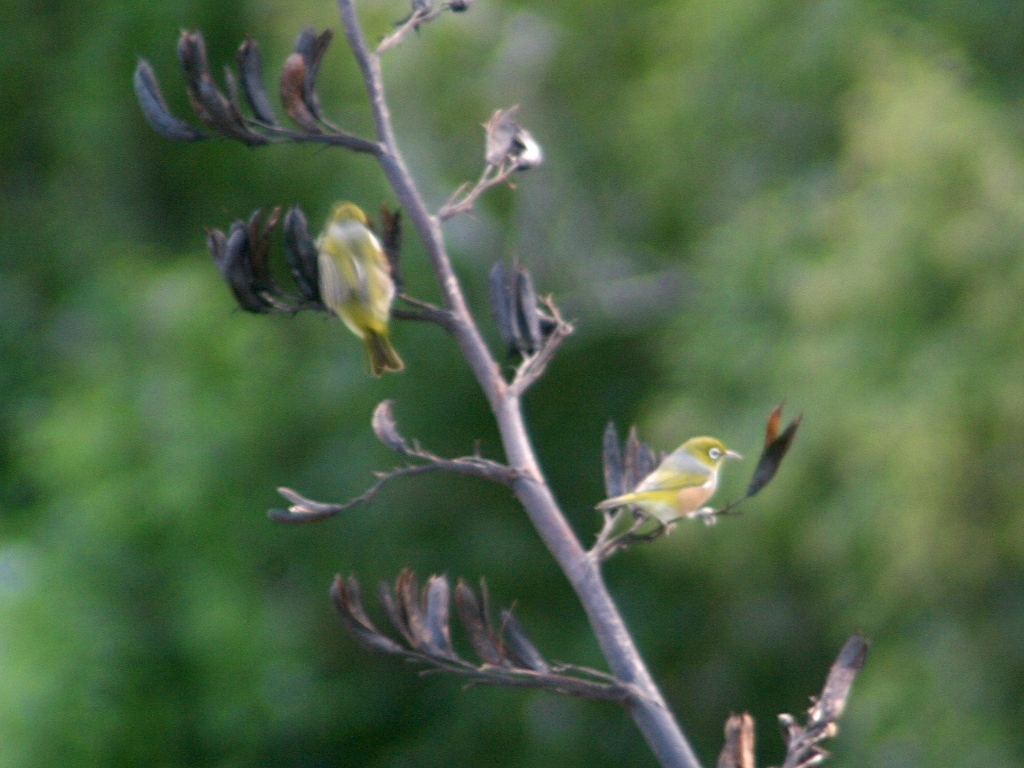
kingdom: Animalia
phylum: Chordata
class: Aves
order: Passeriformes
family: Zosteropidae
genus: Zosterops
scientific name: Zosterops lateralis
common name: Silvereye
